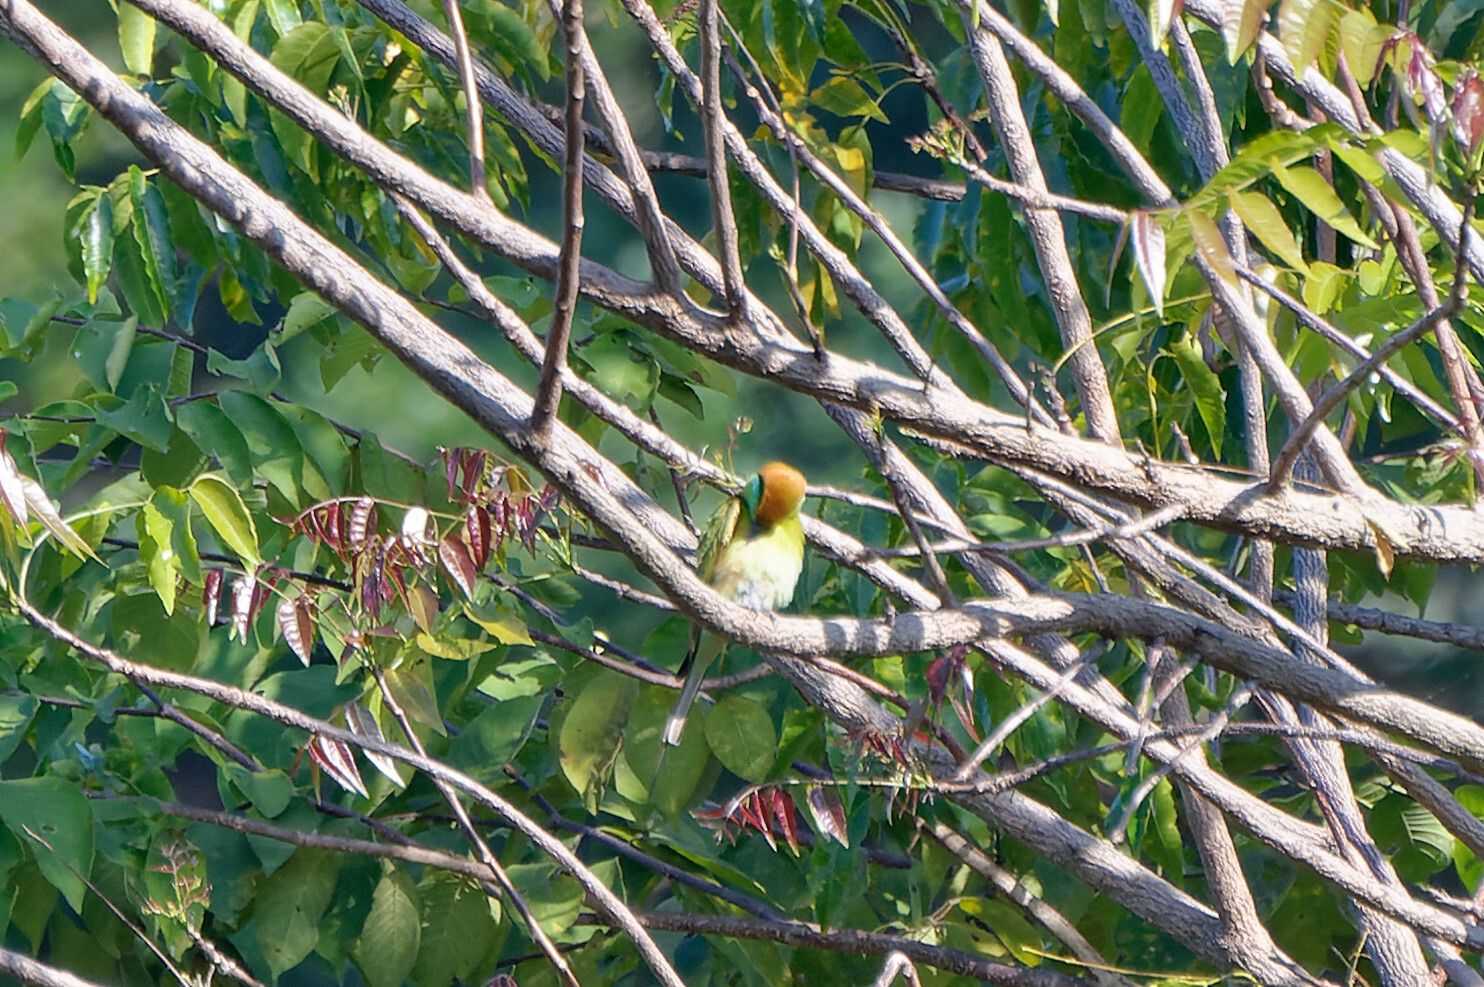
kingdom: Animalia
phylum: Chordata
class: Aves
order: Coraciiformes
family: Meropidae
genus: Merops
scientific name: Merops orientalis
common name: Green bee-eater
